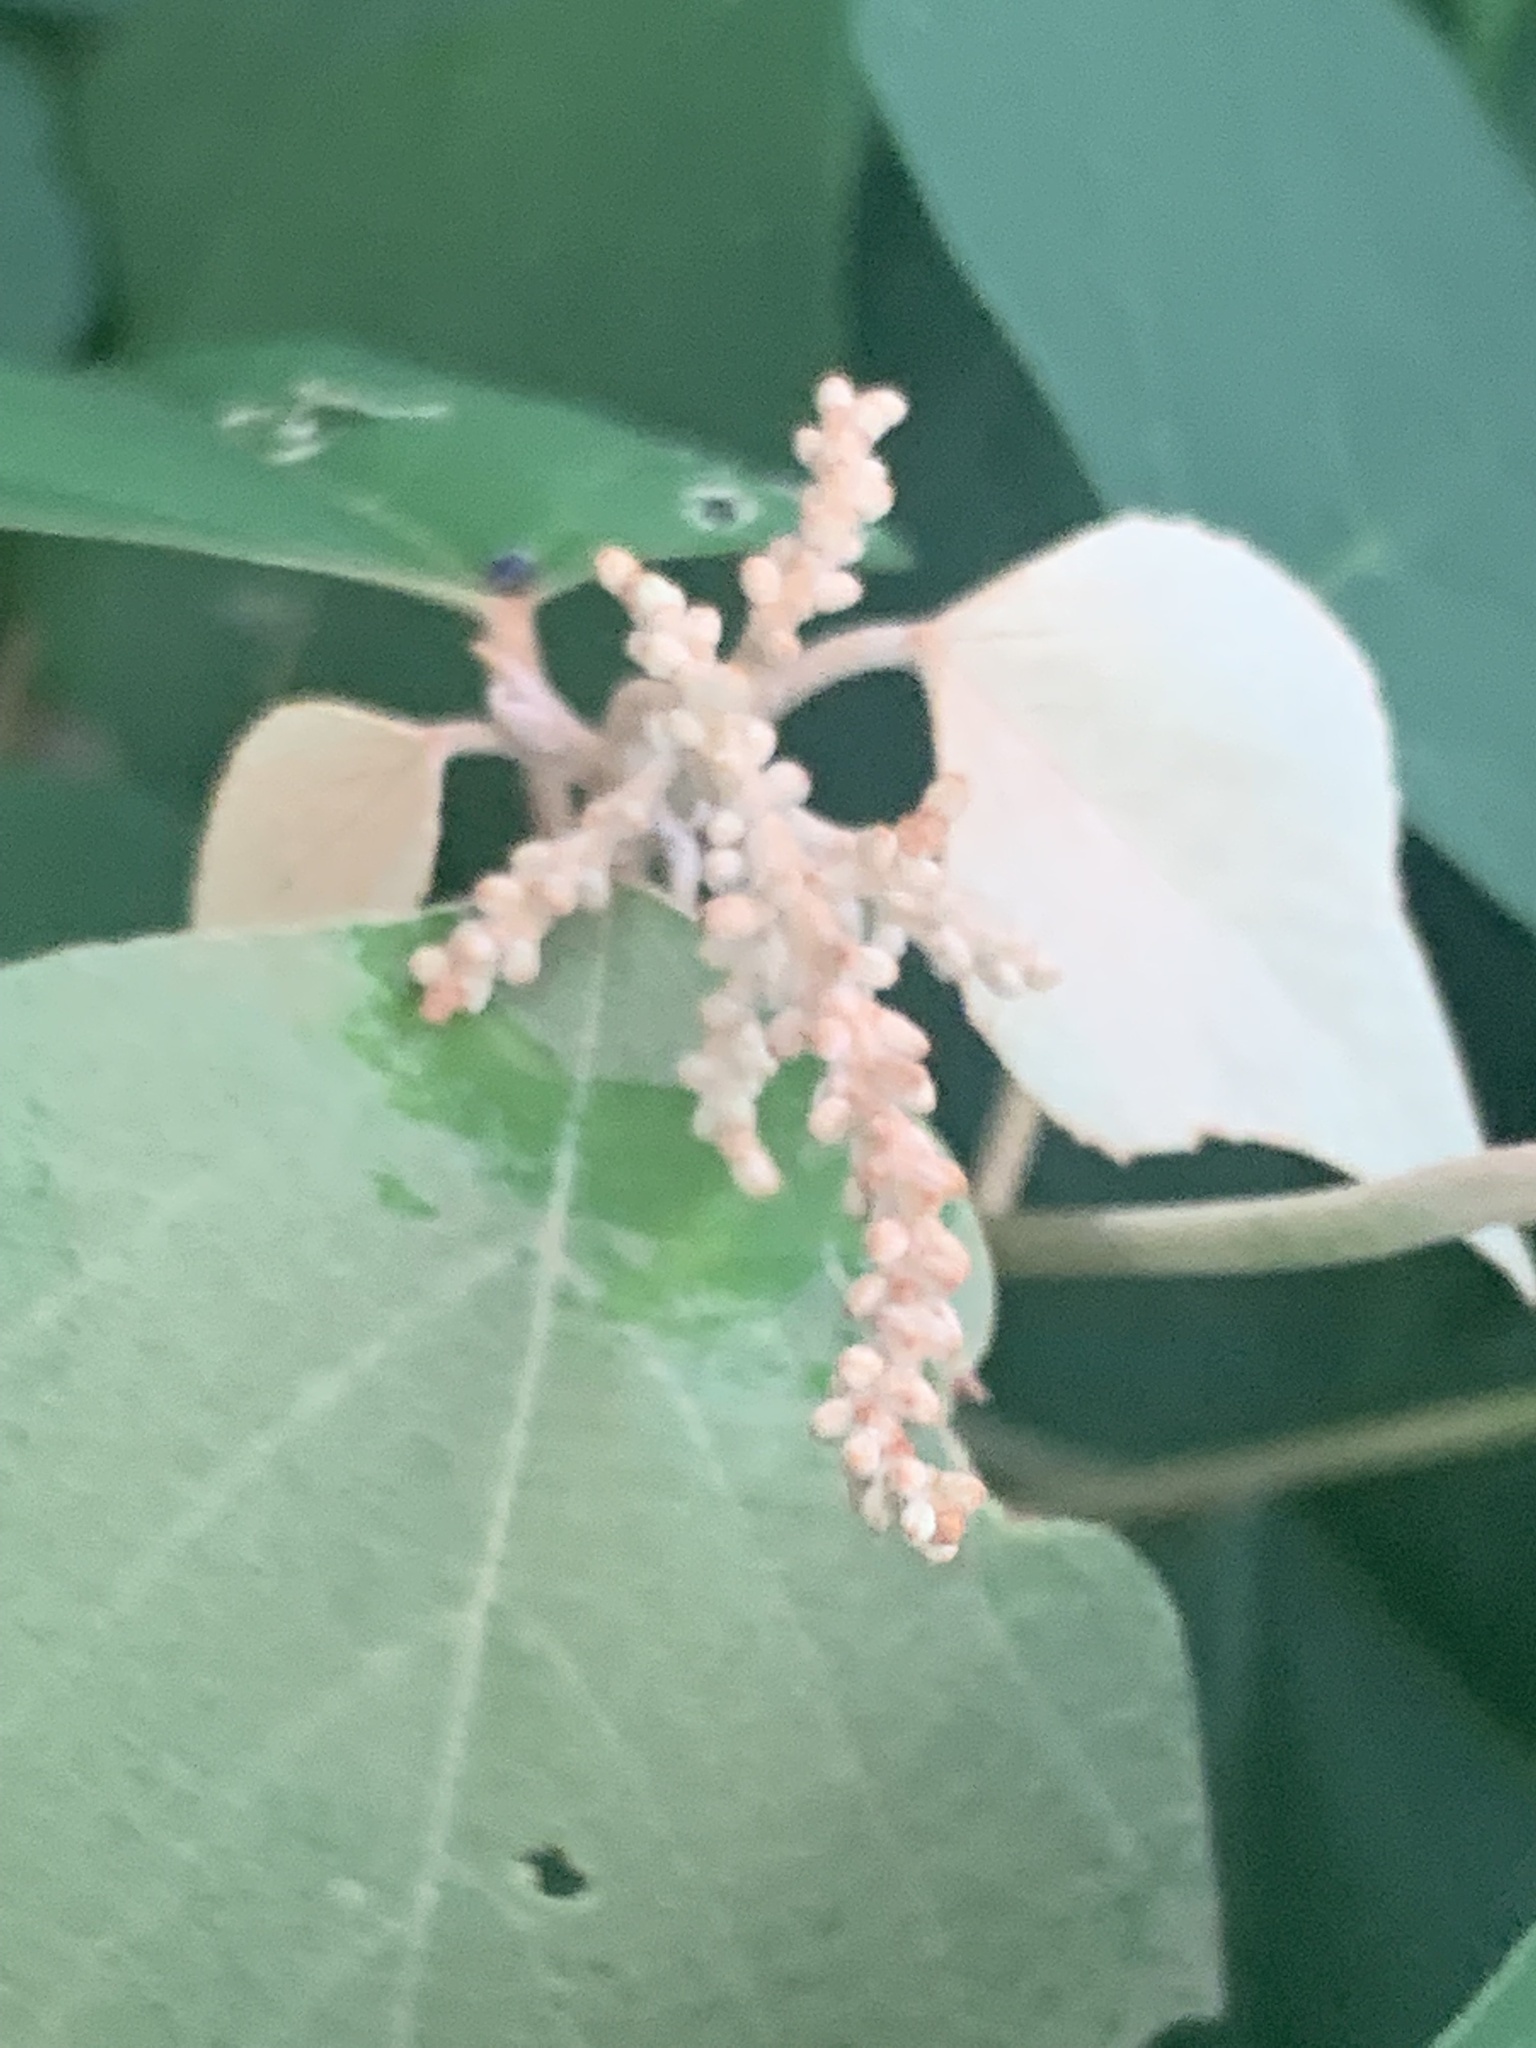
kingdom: Plantae
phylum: Tracheophyta
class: Magnoliopsida
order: Malpighiales
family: Euphorbiaceae
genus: Mallotus
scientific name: Mallotus paniculatus
